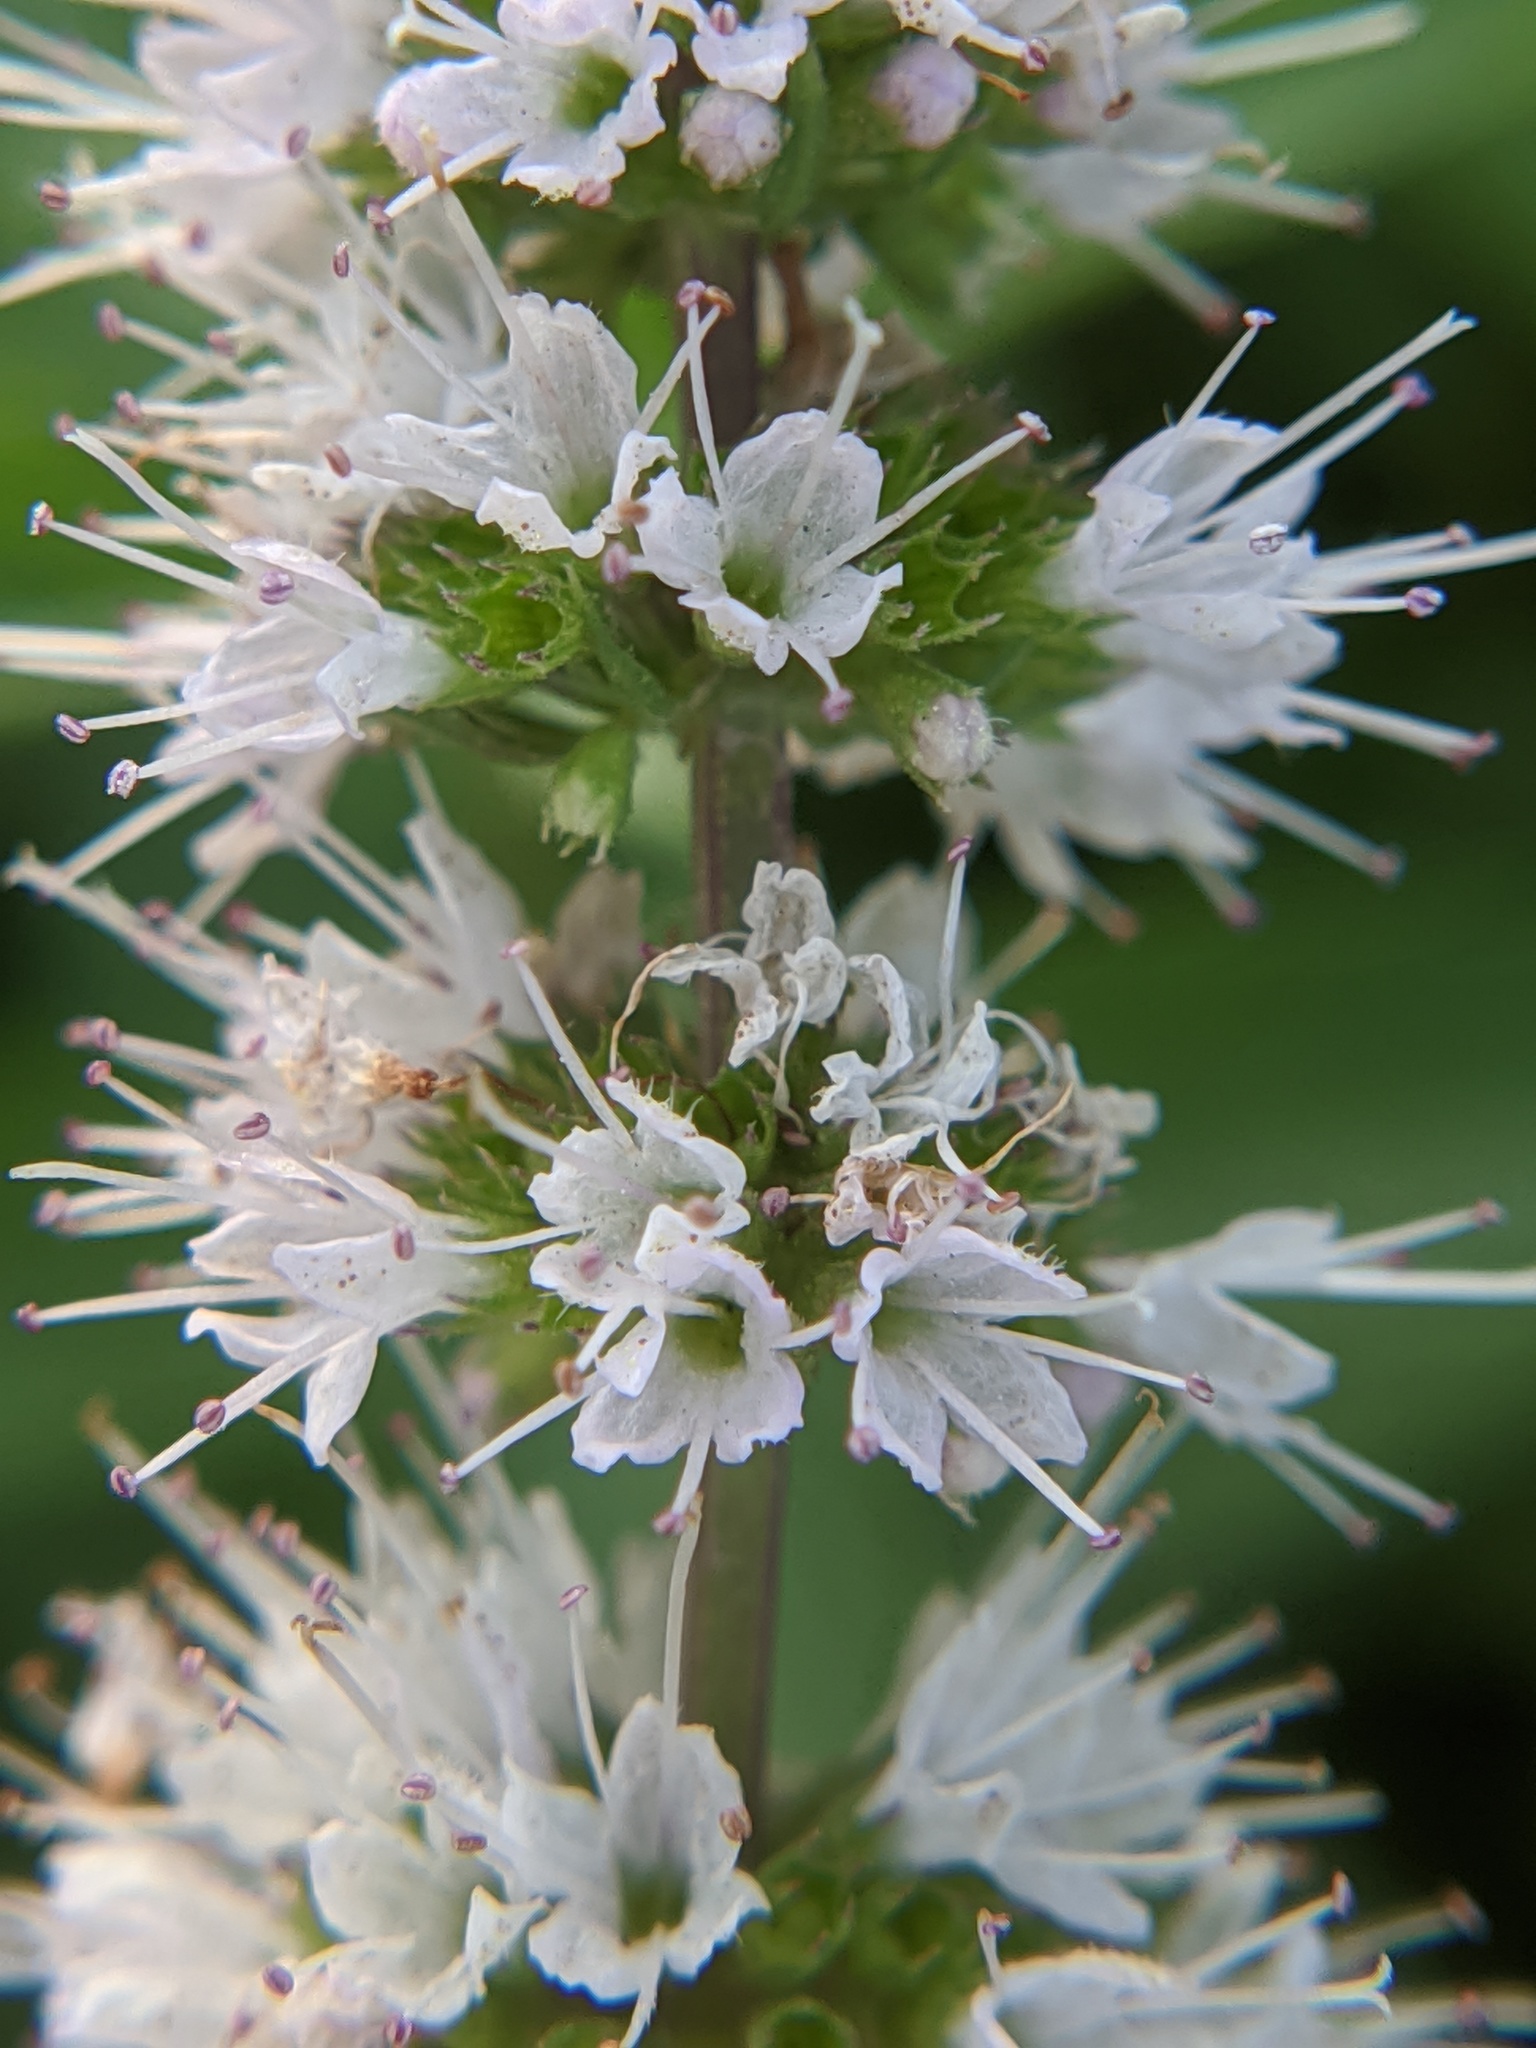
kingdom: Plantae
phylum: Tracheophyta
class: Magnoliopsida
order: Lamiales
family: Lamiaceae
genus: Mentha
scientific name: Mentha spicata
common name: Spearmint
